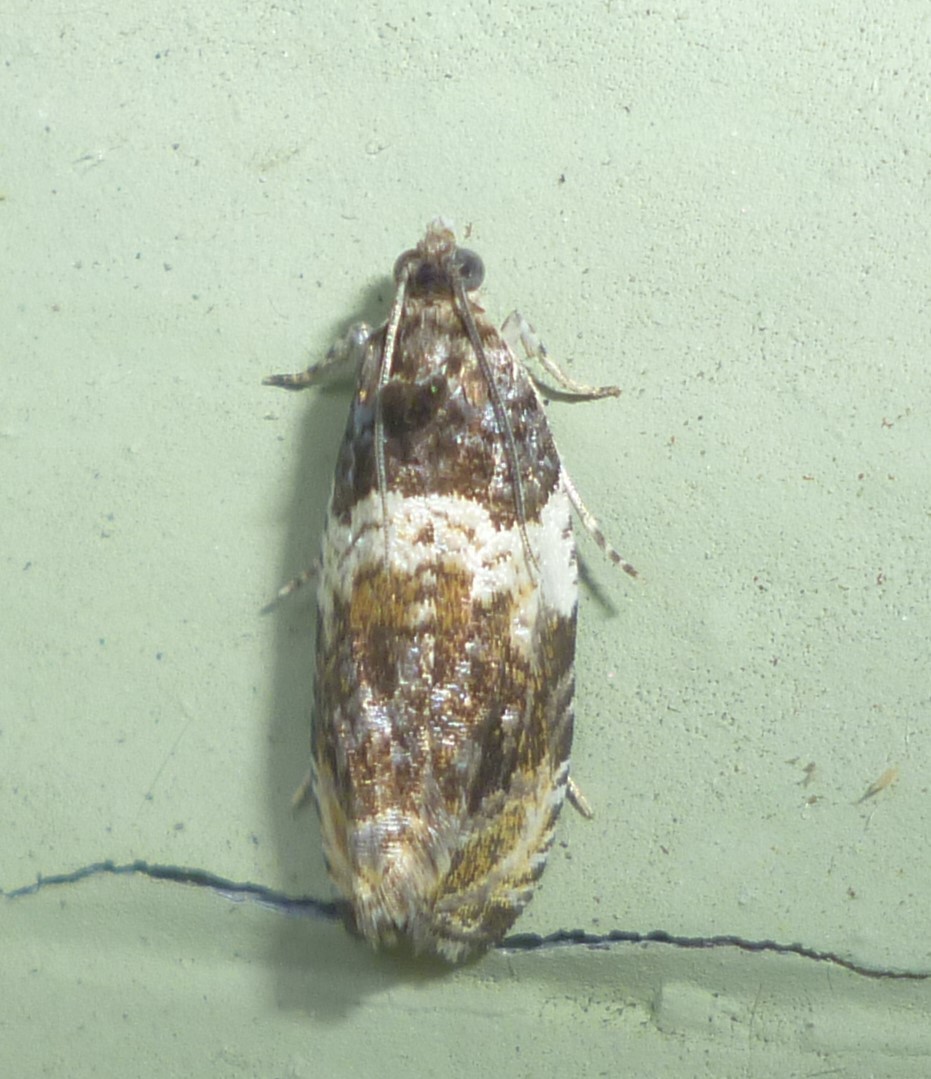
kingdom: Animalia
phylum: Arthropoda
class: Insecta
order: Lepidoptera
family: Tortricidae
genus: Olethreutes
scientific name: Olethreutes fasciatana
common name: Banded olethreutes moth
